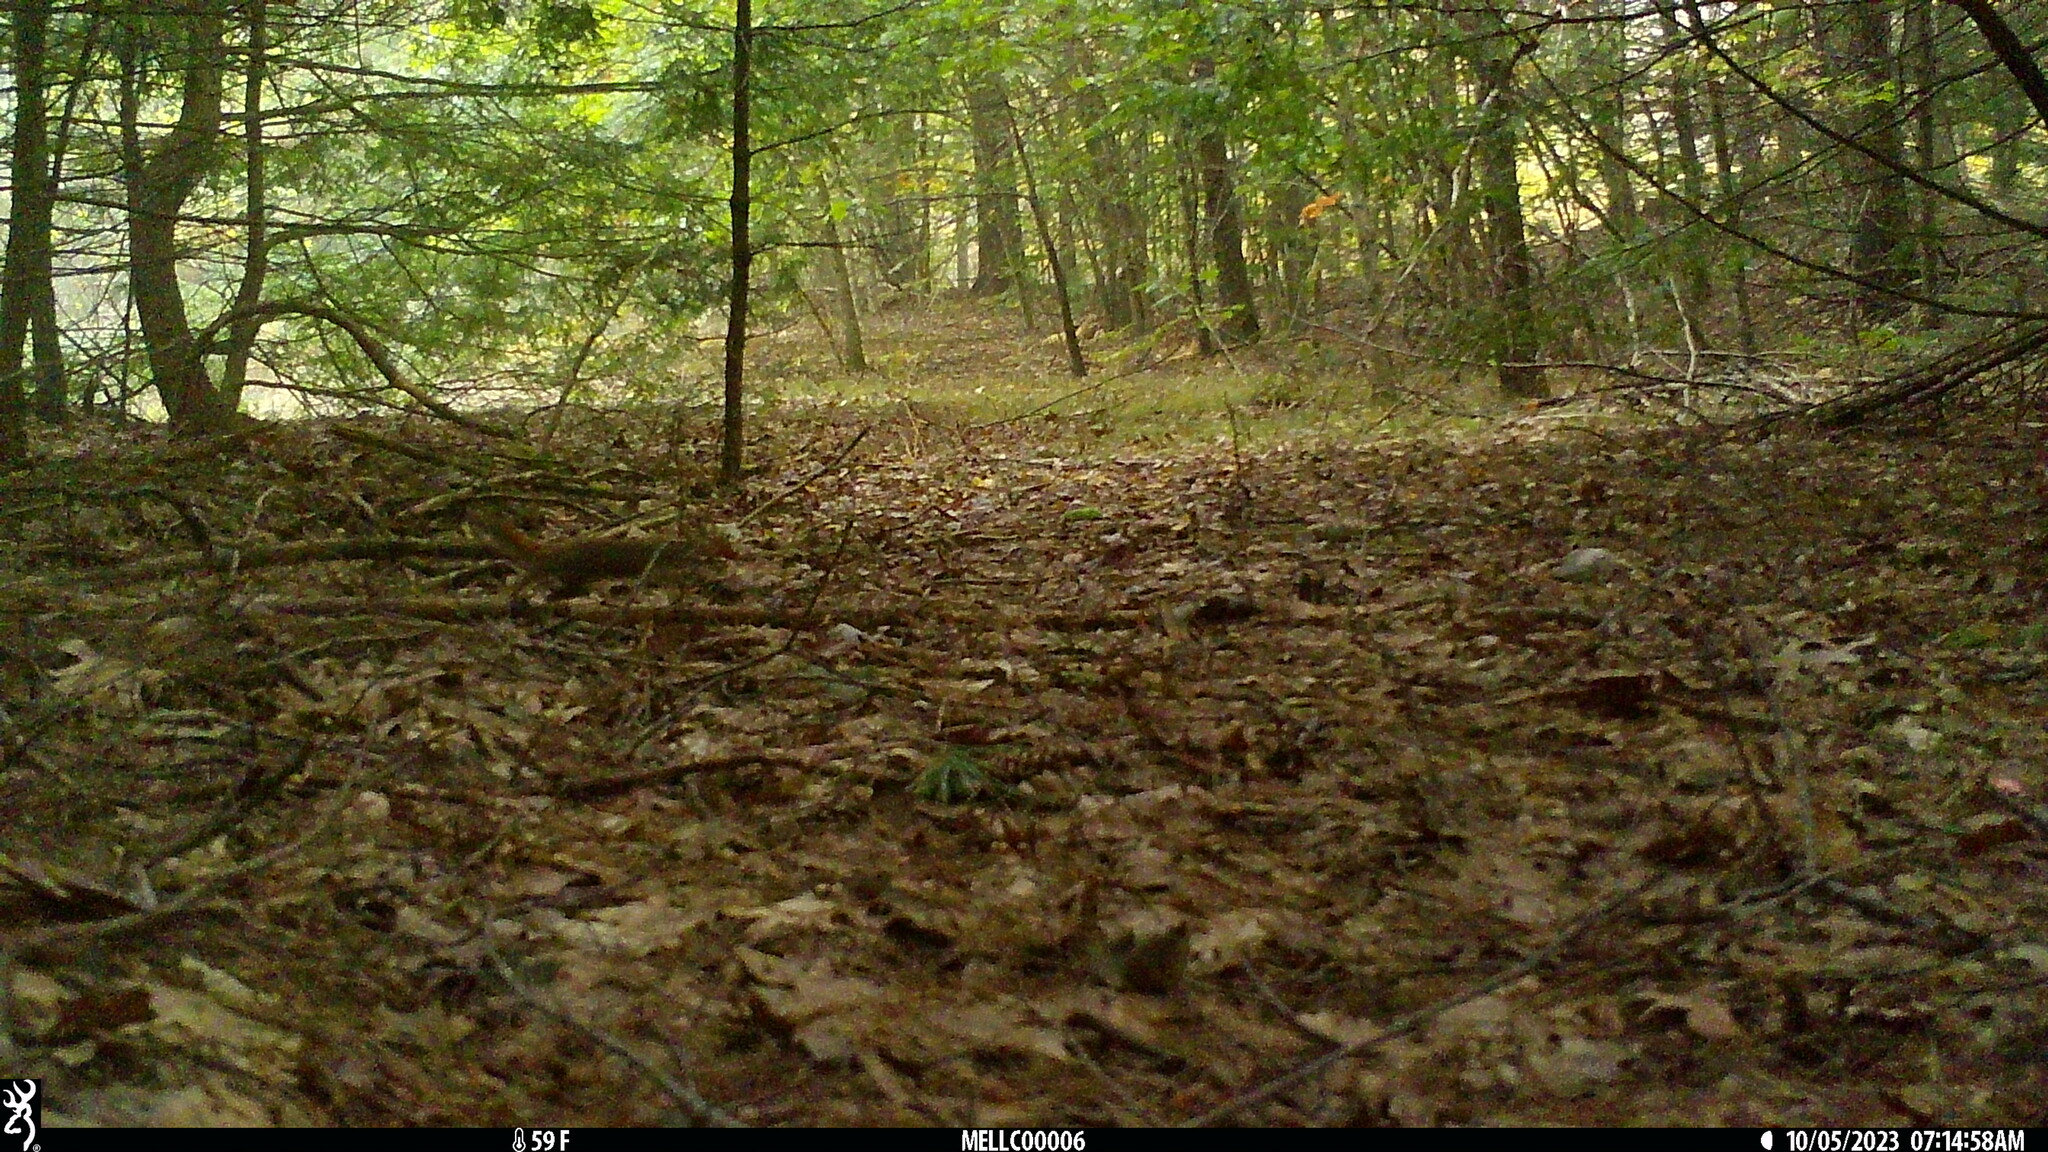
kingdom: Animalia
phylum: Chordata
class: Mammalia
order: Rodentia
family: Sciuridae
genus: Tamiasciurus
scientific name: Tamiasciurus hudsonicus
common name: Red squirrel
